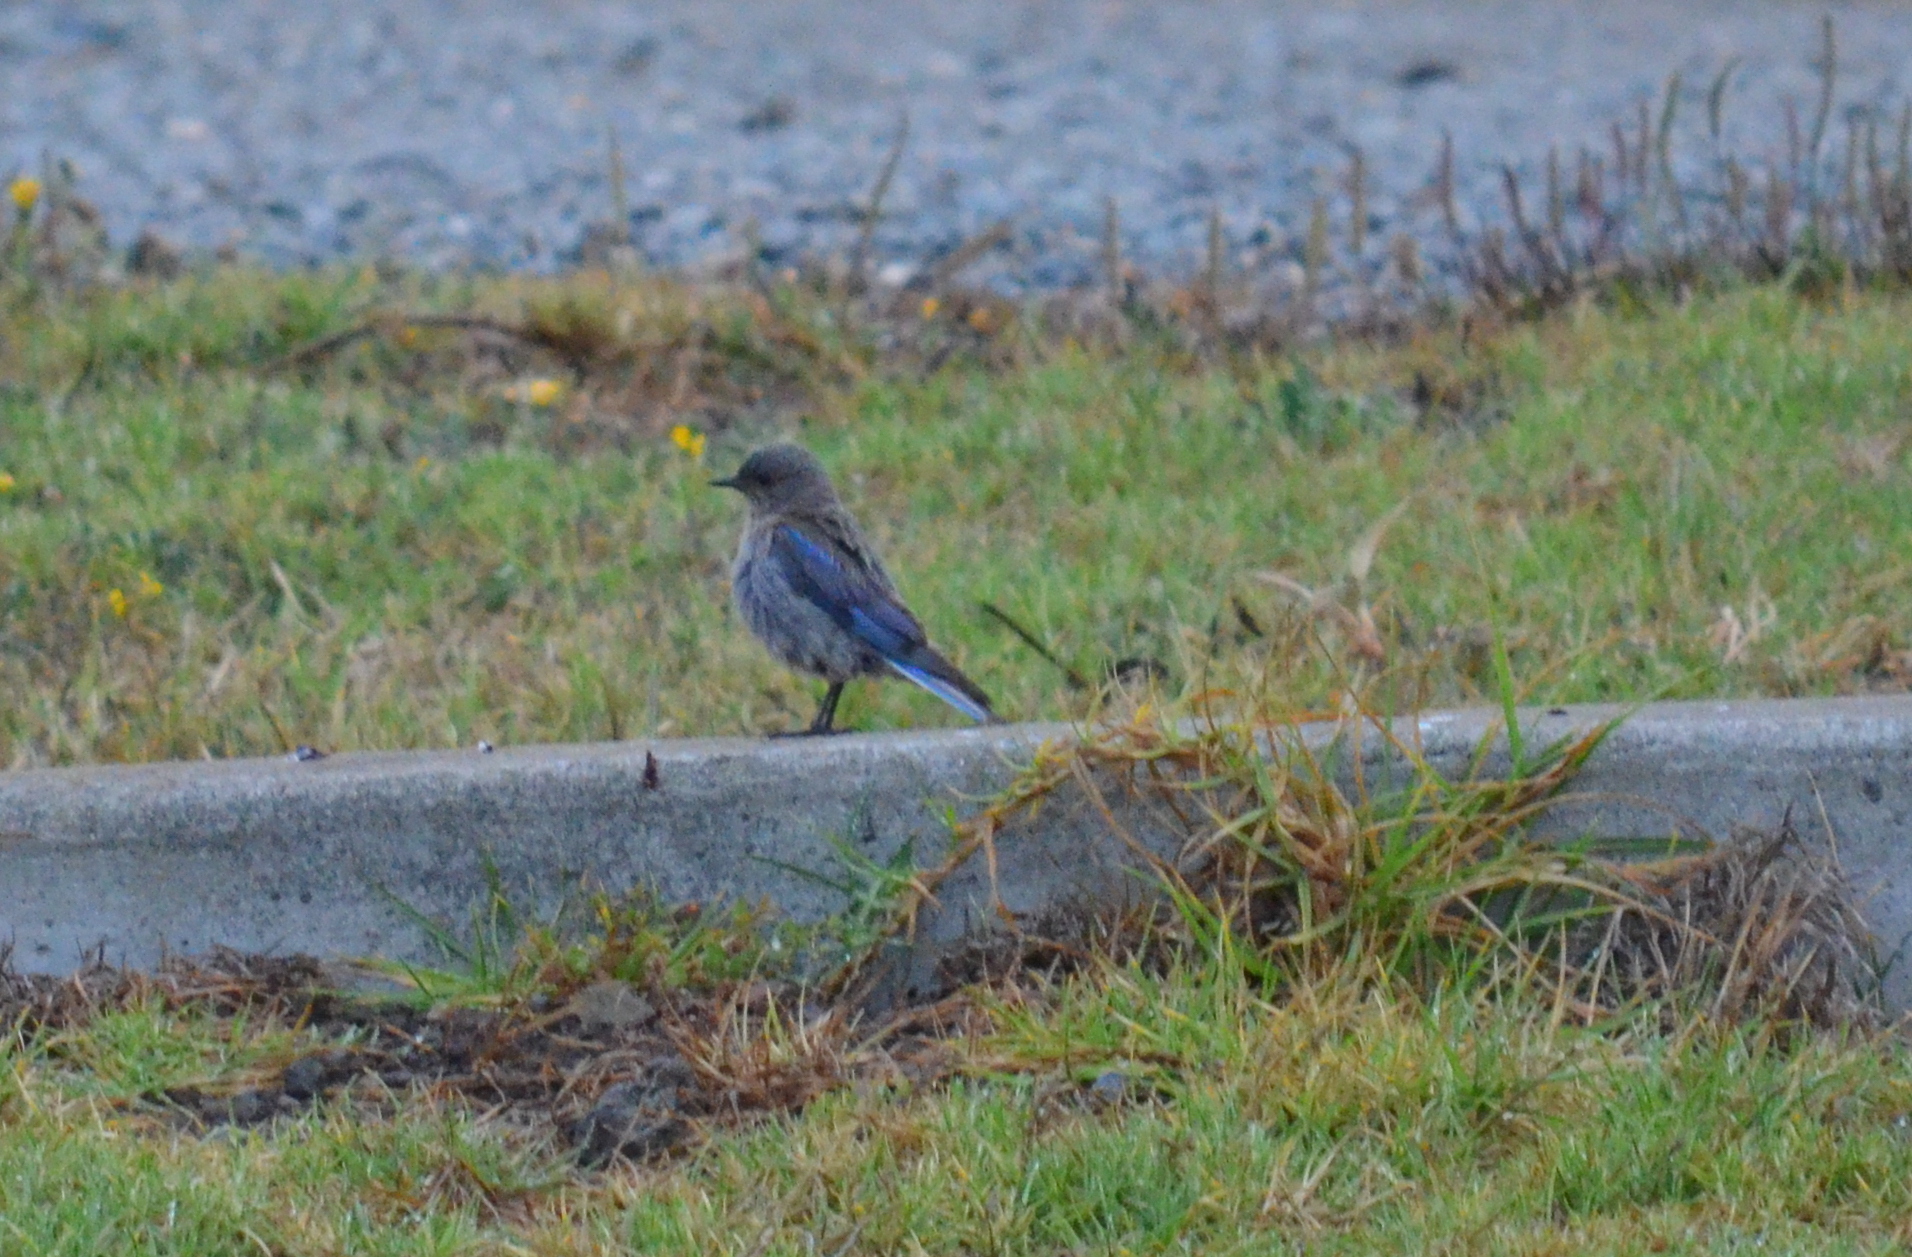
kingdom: Animalia
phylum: Chordata
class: Aves
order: Passeriformes
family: Turdidae
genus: Sialia
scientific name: Sialia mexicana
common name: Western bluebird
